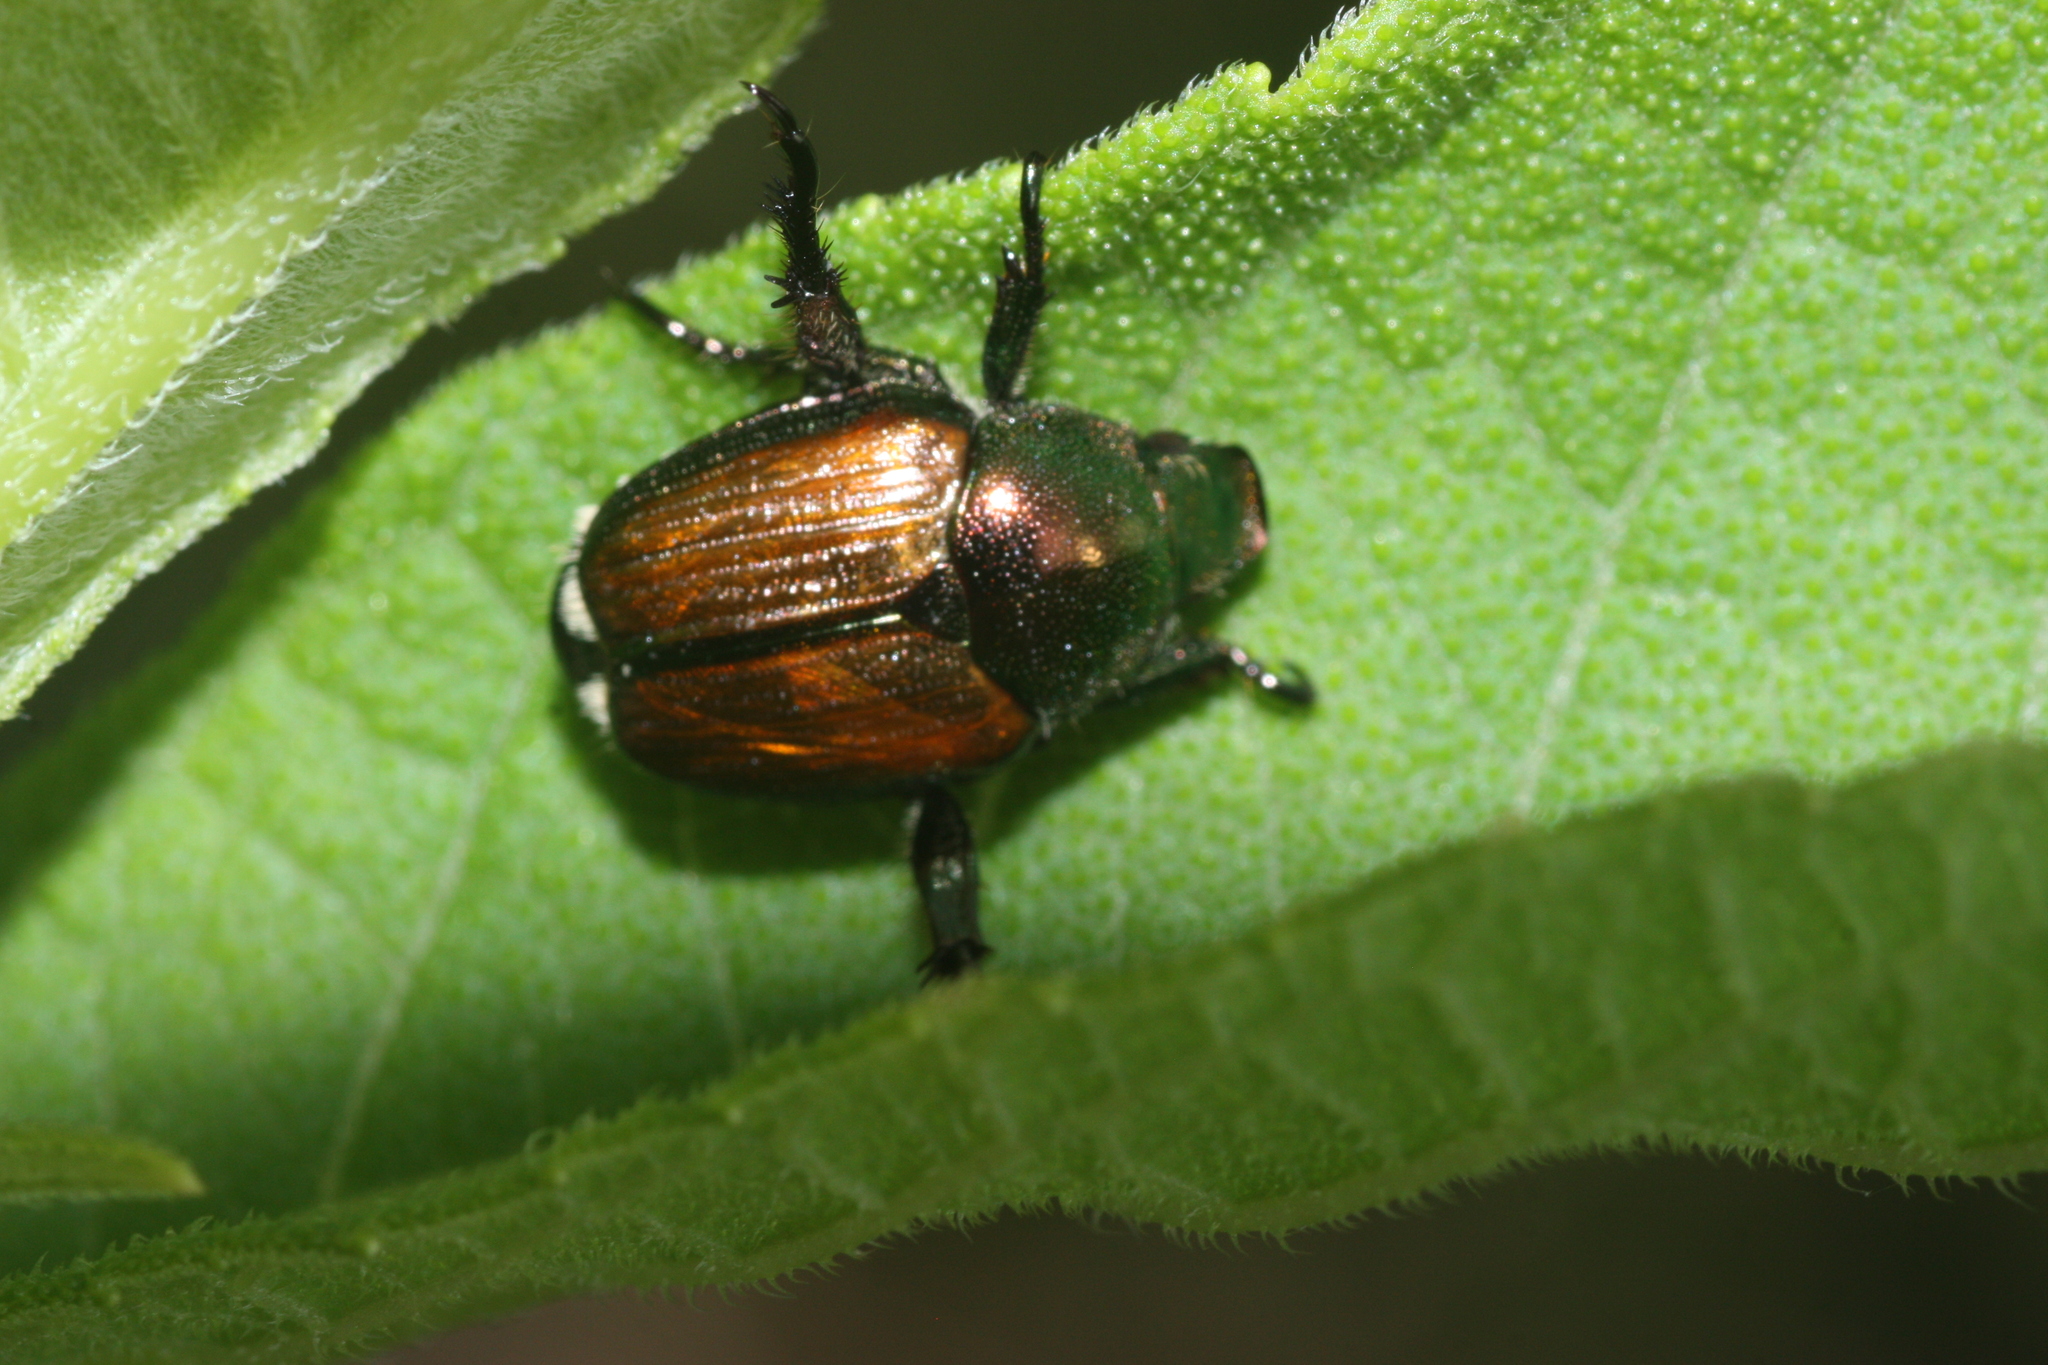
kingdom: Animalia
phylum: Arthropoda
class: Insecta
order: Coleoptera
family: Scarabaeidae
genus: Popillia
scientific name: Popillia japonica
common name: Japanese beetle
